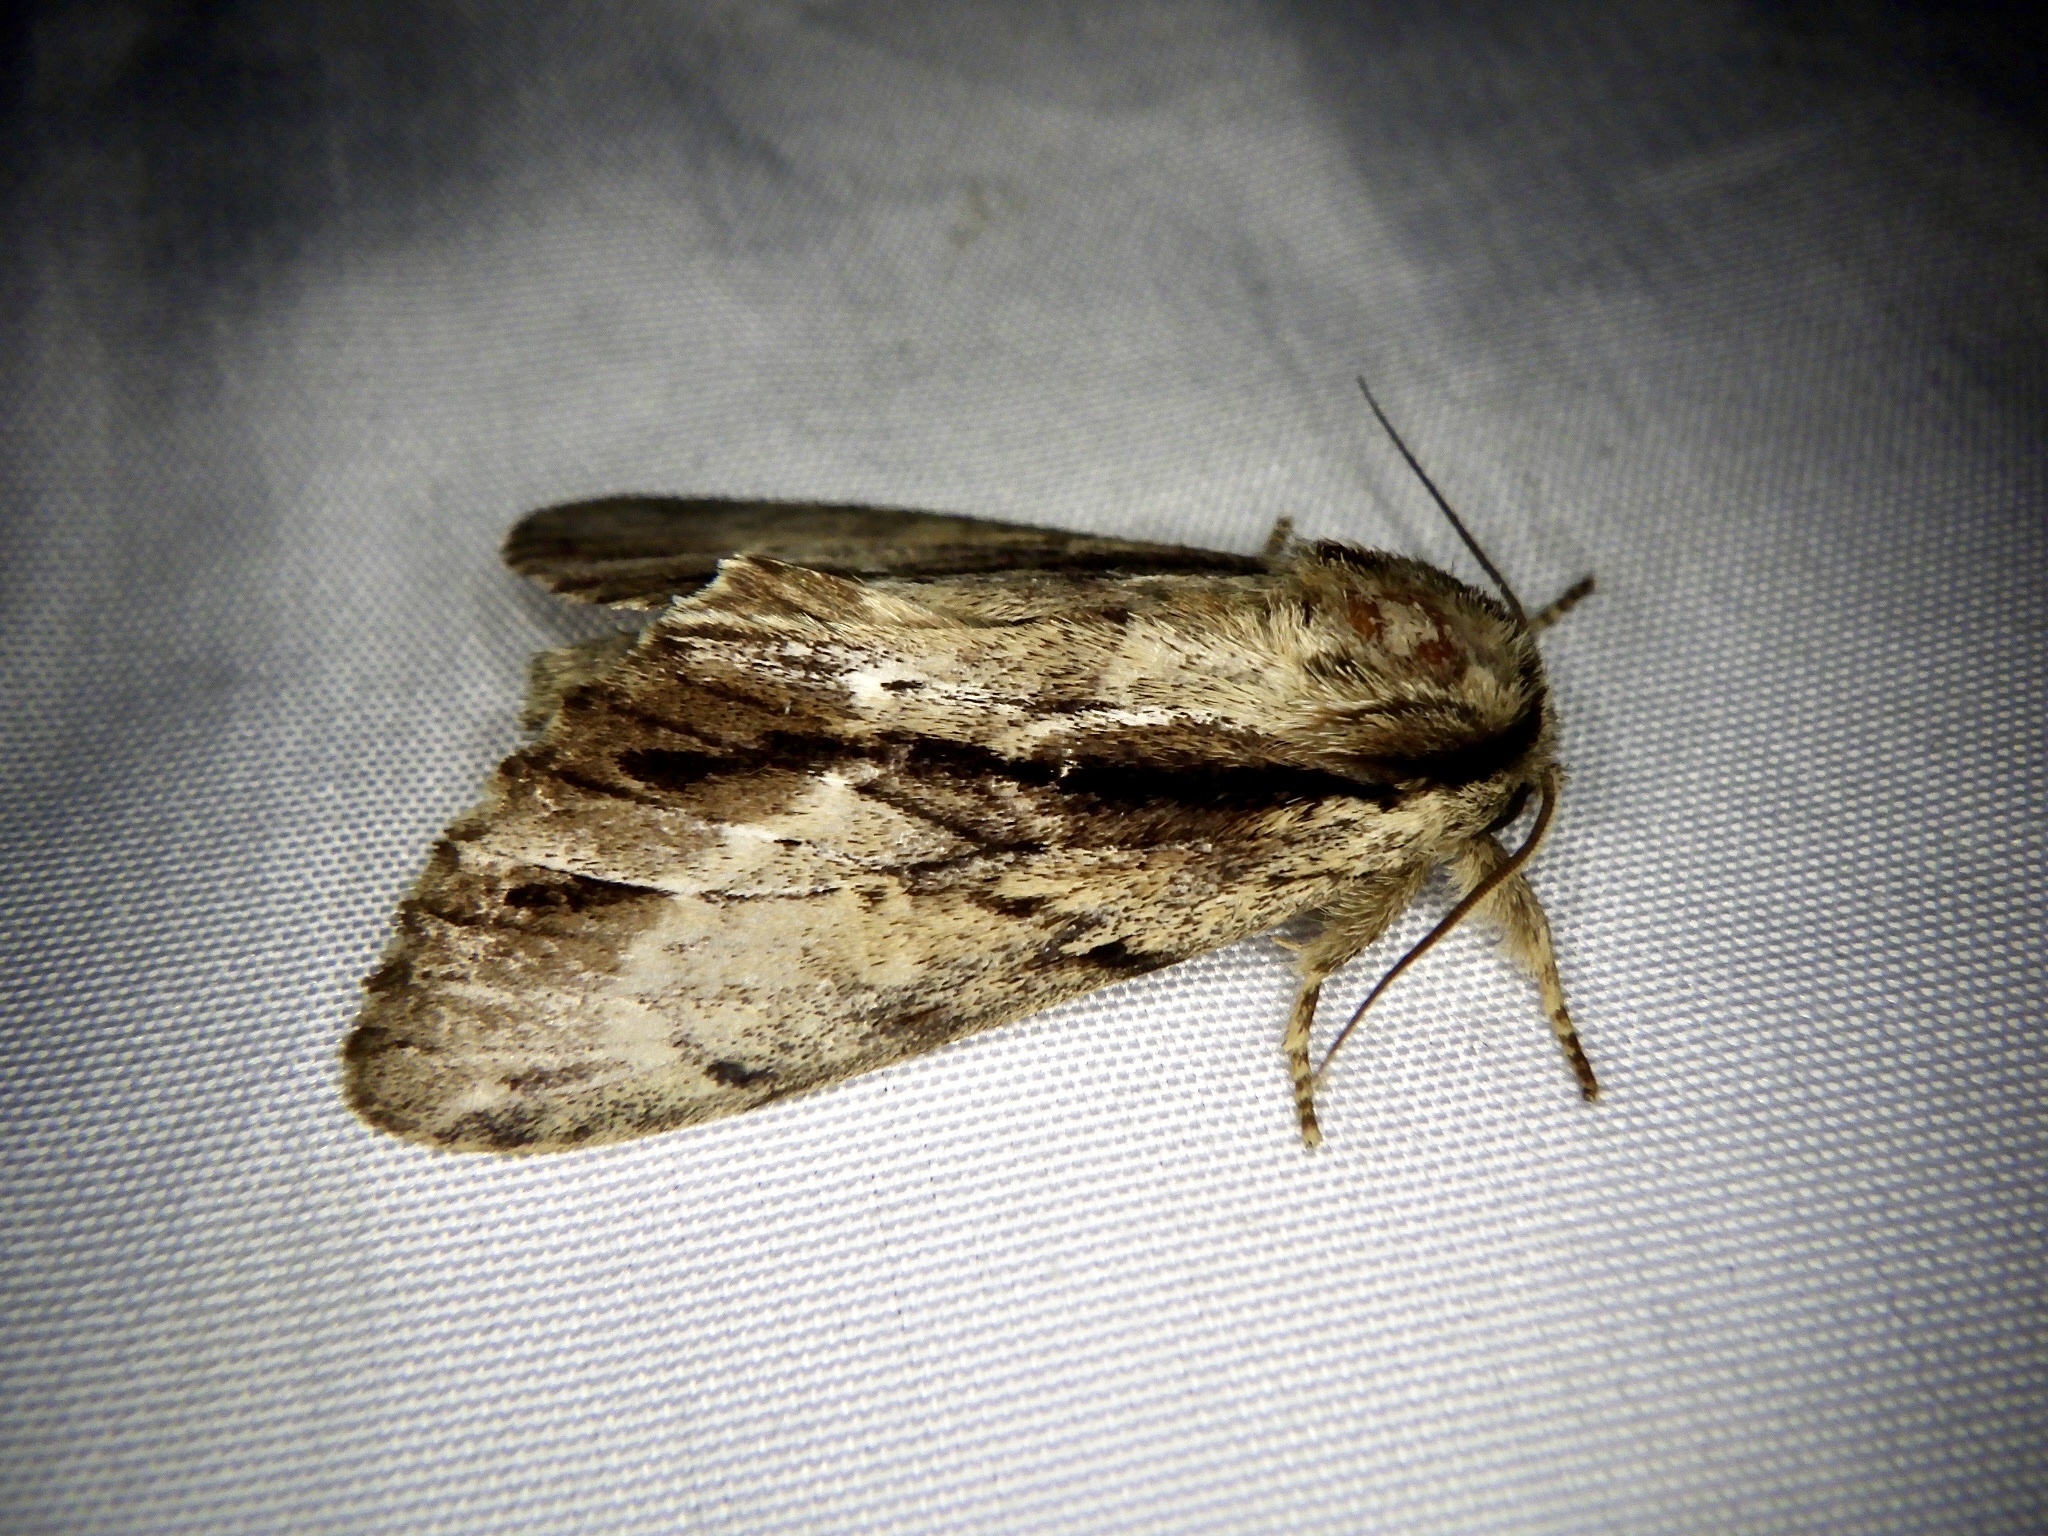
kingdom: Animalia
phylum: Arthropoda
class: Insecta
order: Lepidoptera
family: Notodontidae
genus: Shaka
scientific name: Shaka atrovittatus
